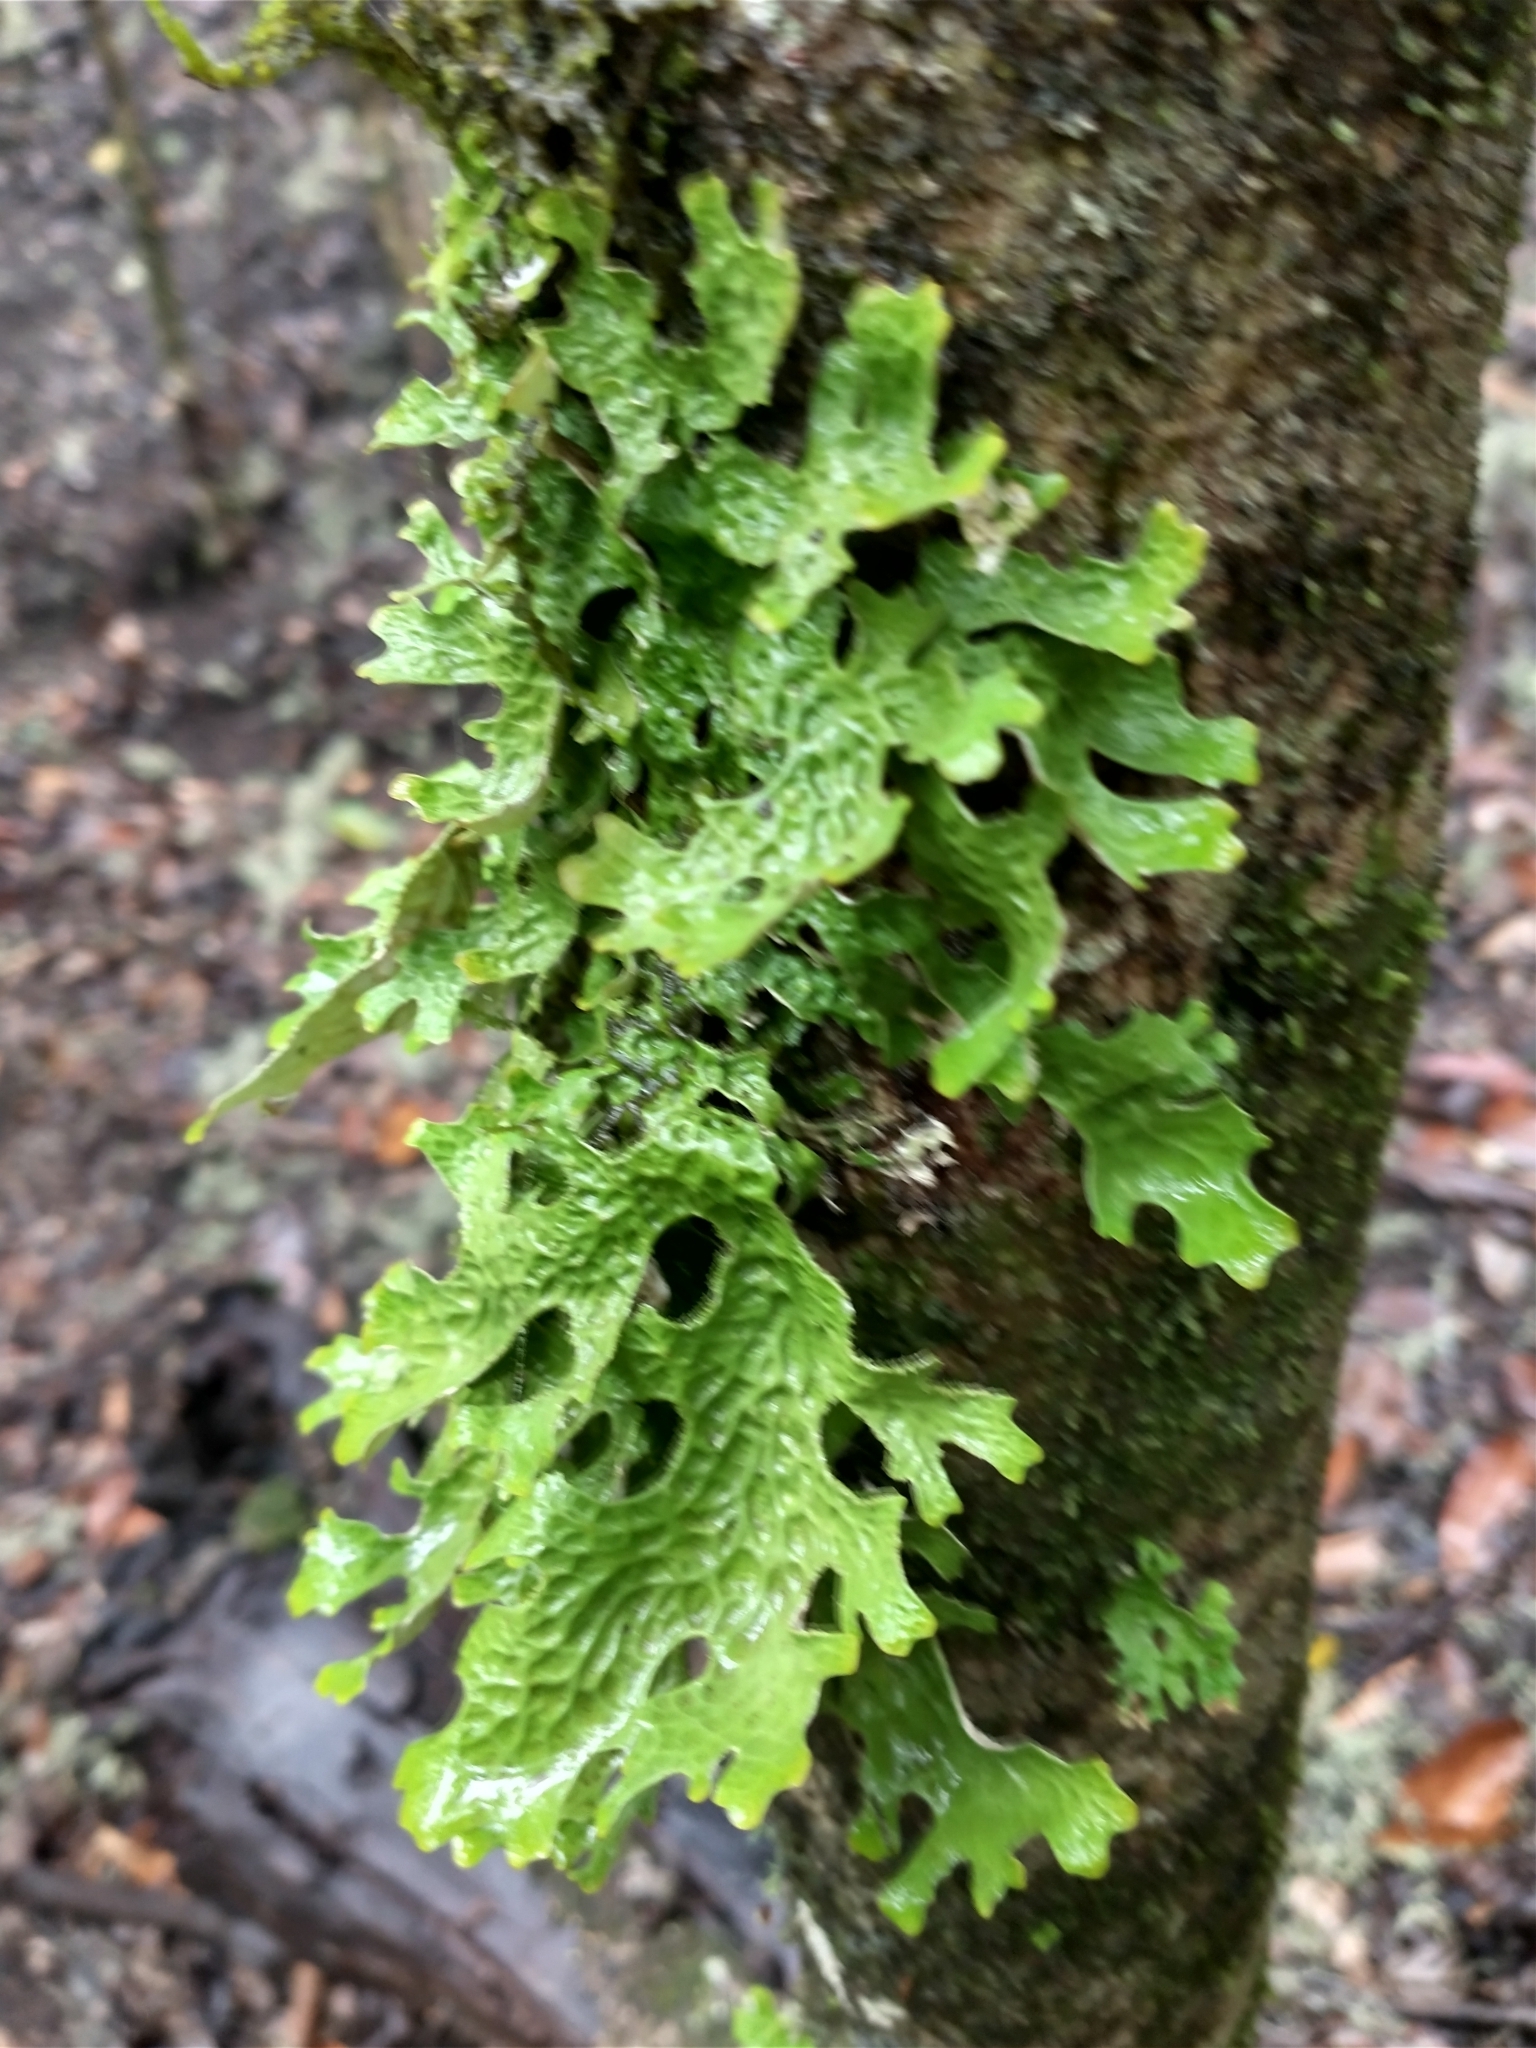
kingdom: Fungi
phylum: Ascomycota
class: Lecanoromycetes
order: Peltigerales
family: Lobariaceae
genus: Lobaria
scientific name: Lobaria pulmonaria
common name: Lungwort
